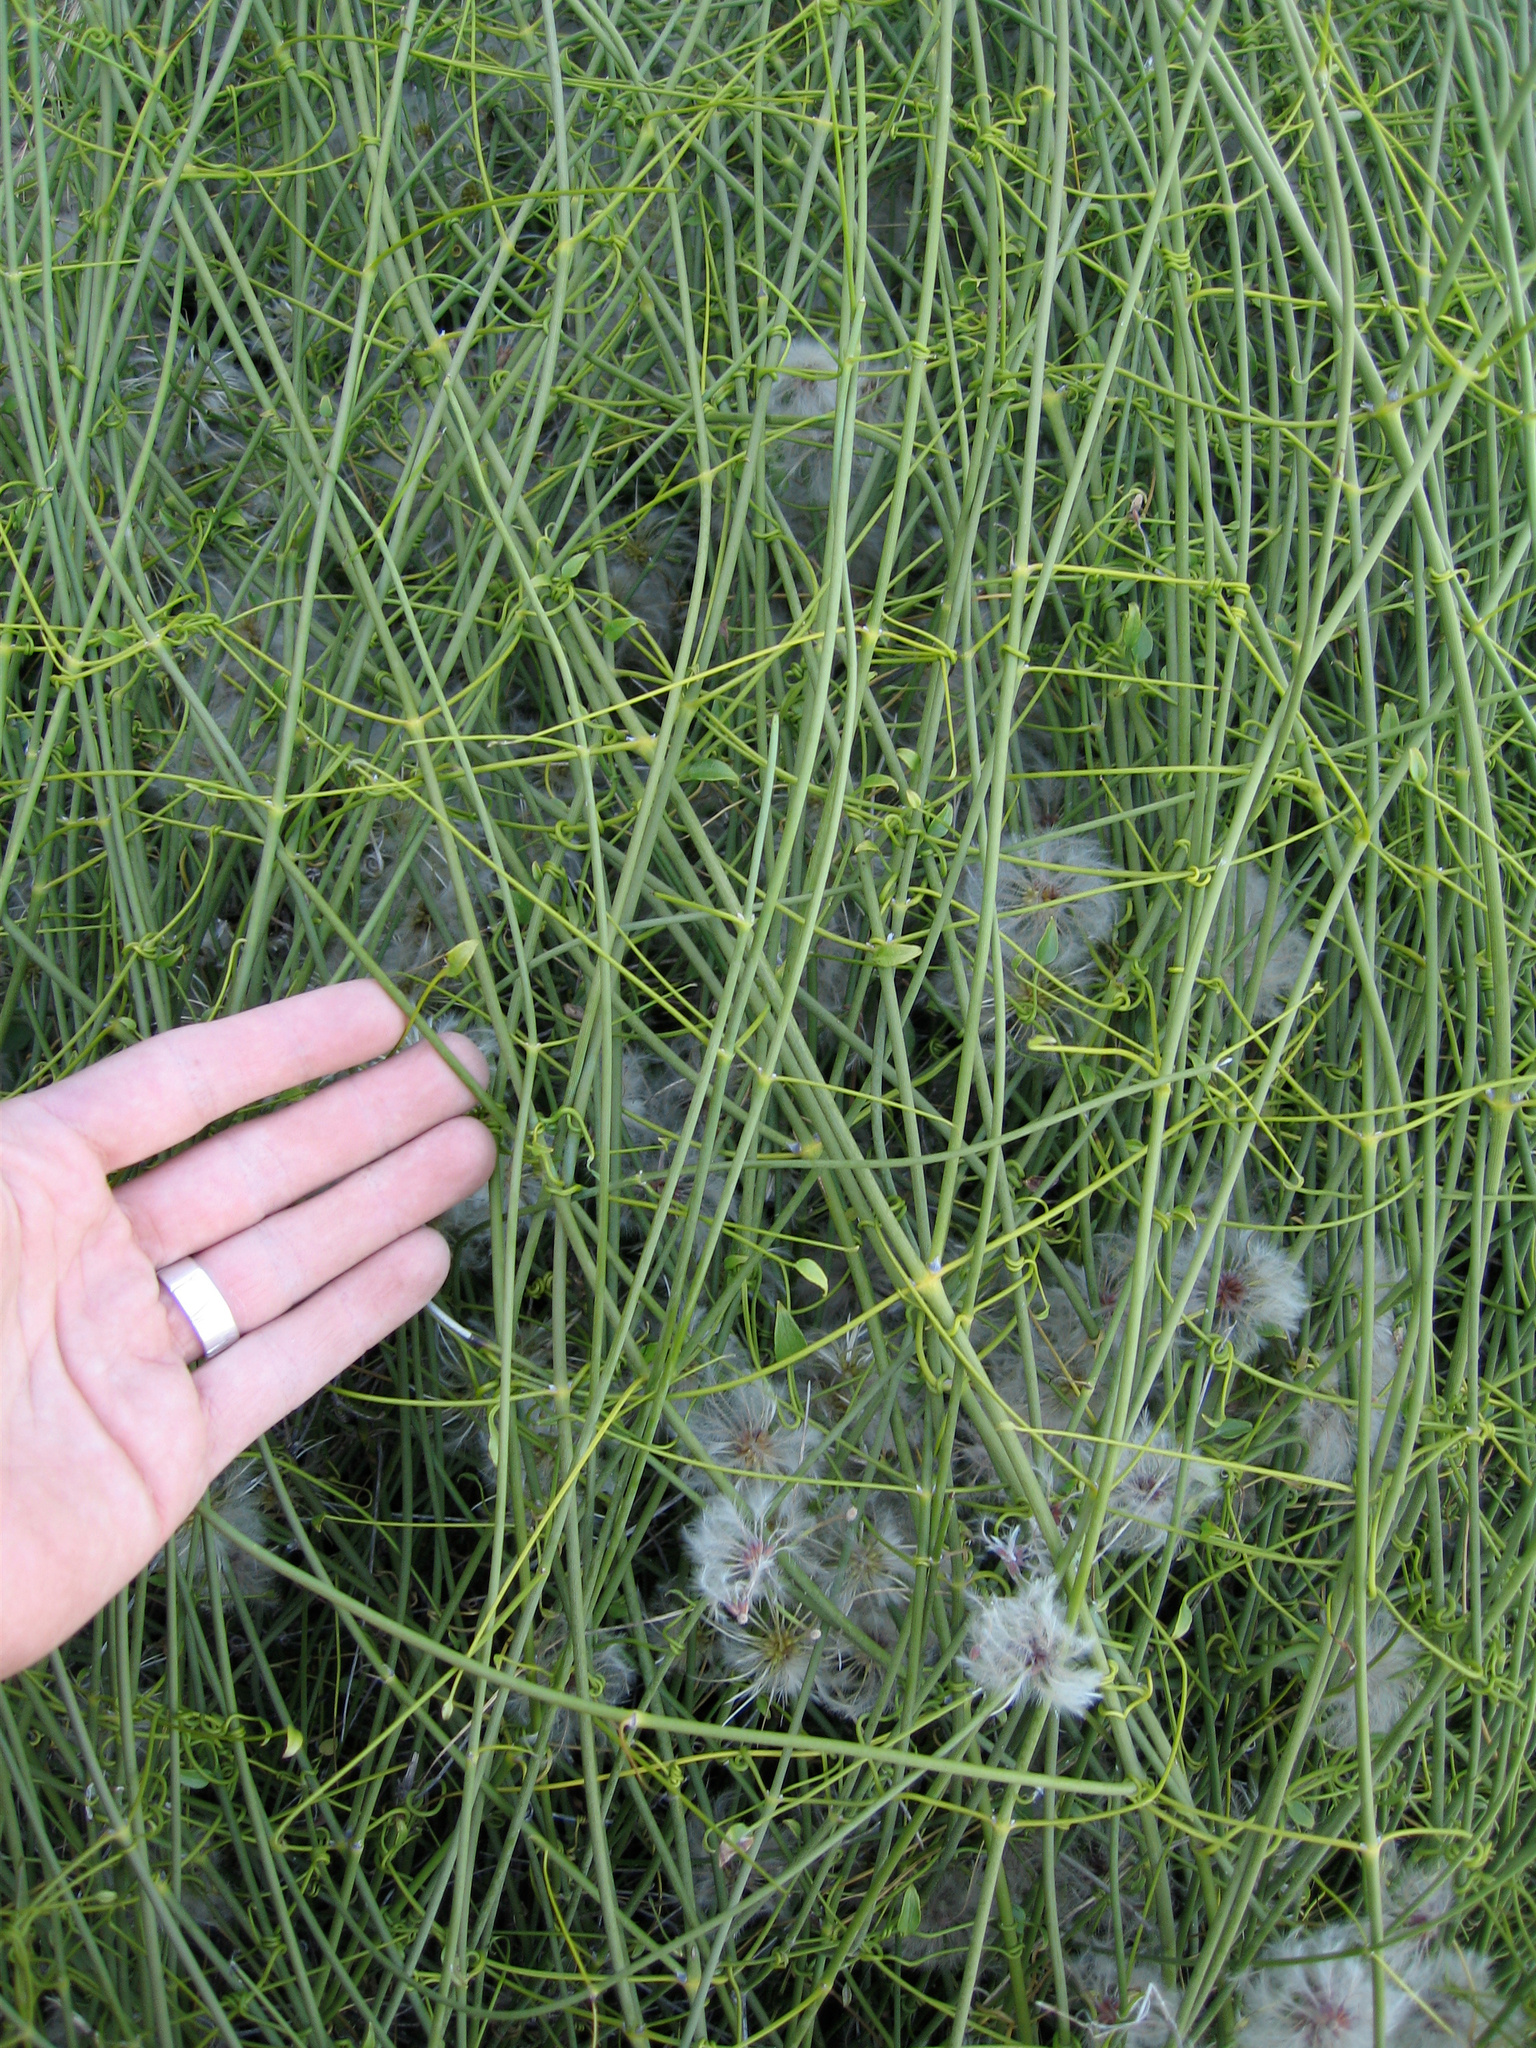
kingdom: Plantae
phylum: Tracheophyta
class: Magnoliopsida
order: Ranunculales
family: Ranunculaceae
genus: Clematis
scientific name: Clematis afoliata
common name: Rush-stem clematis
